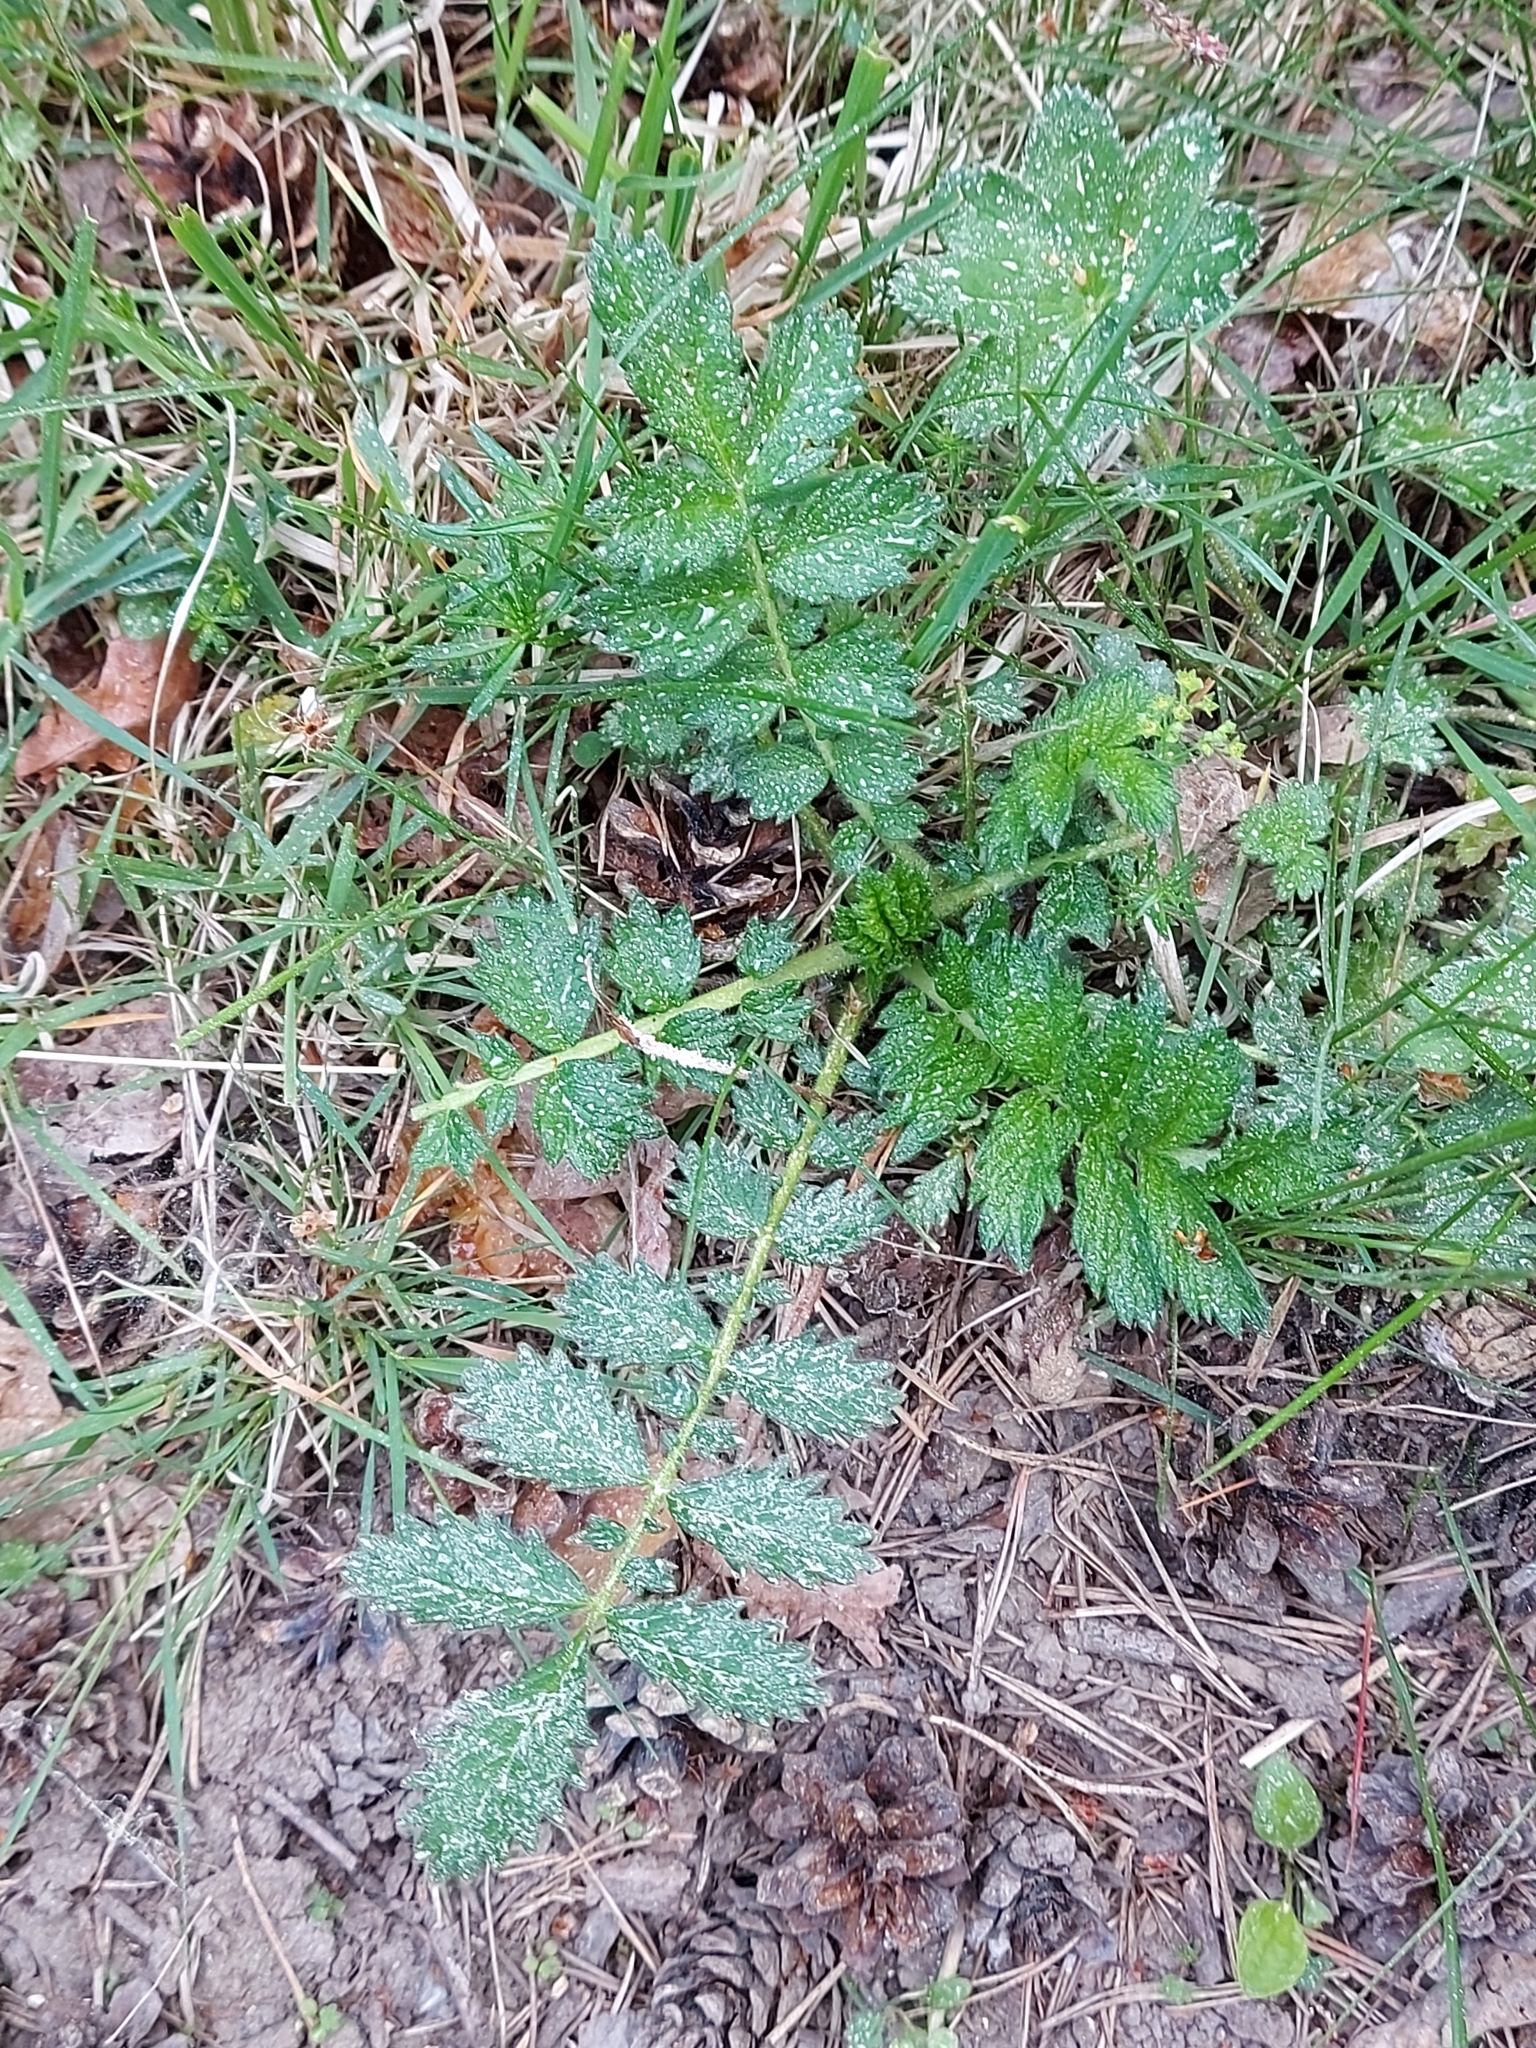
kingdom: Plantae
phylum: Tracheophyta
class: Magnoliopsida
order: Rosales
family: Rosaceae
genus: Agrimonia
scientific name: Agrimonia eupatoria
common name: Agrimony
